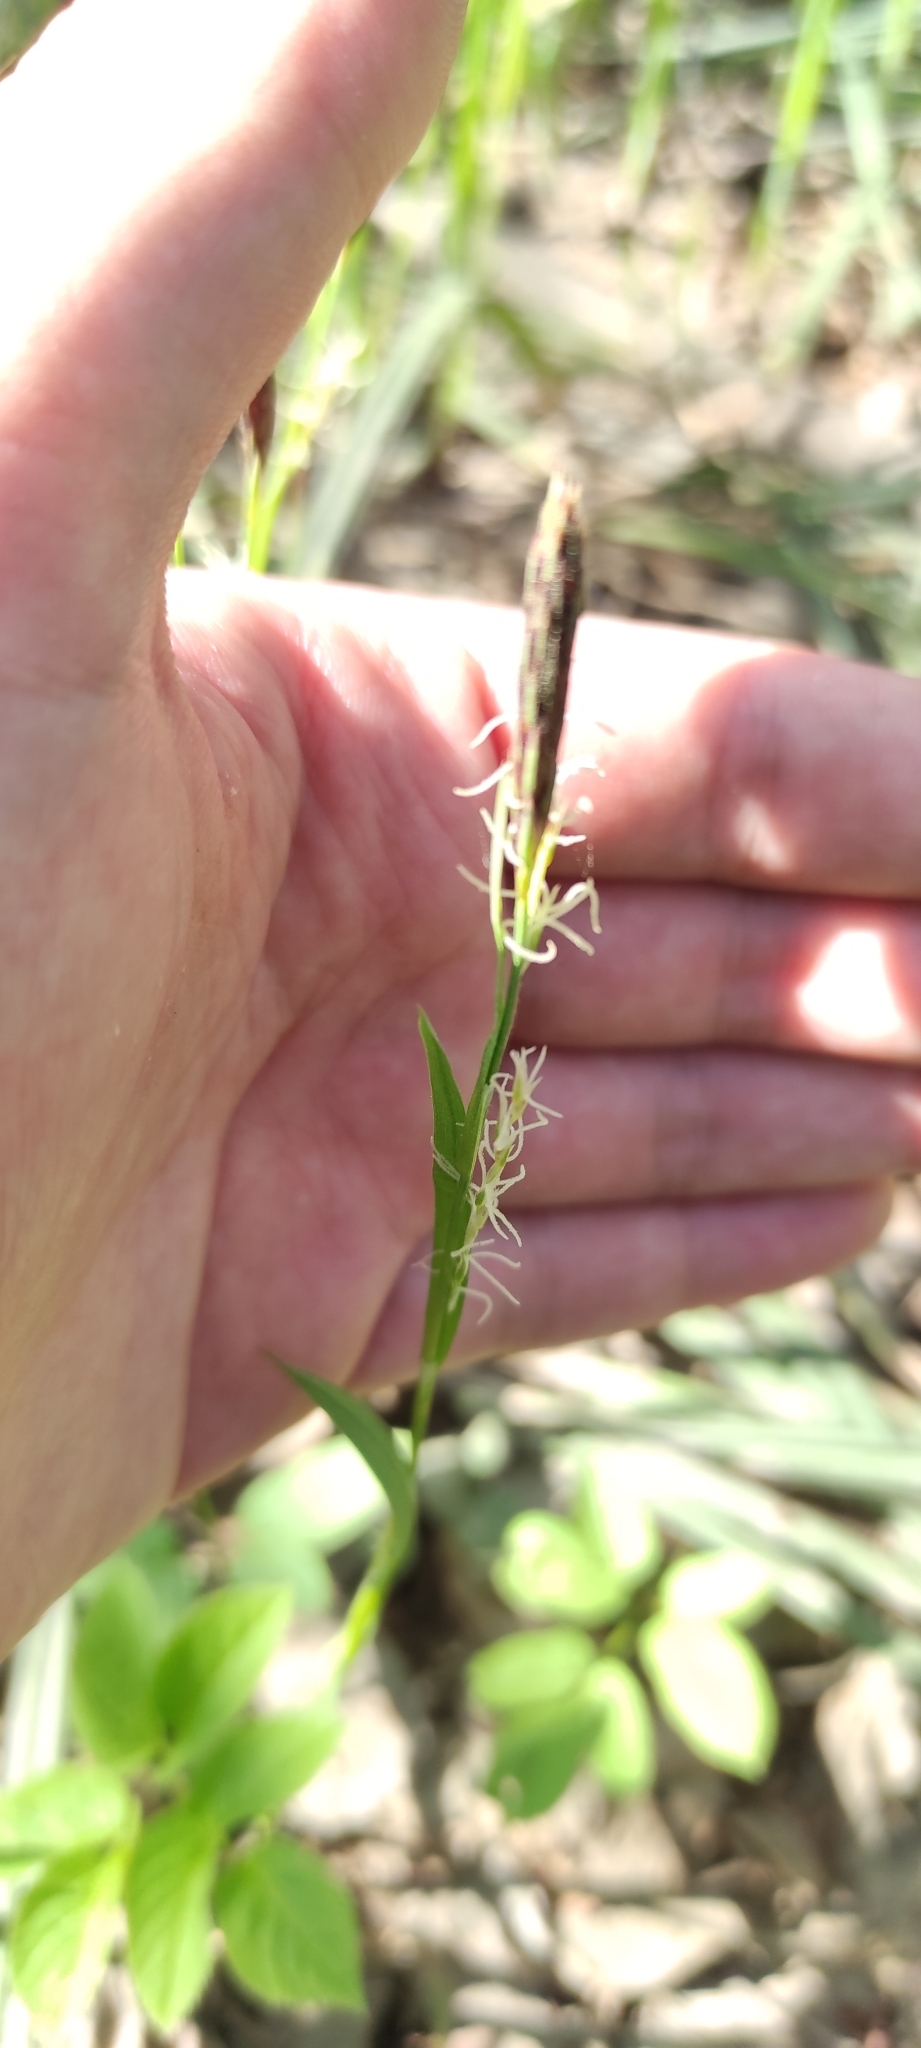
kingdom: Plantae
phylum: Tracheophyta
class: Liliopsida
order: Poales
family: Cyperaceae
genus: Carex
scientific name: Carex pilosa
